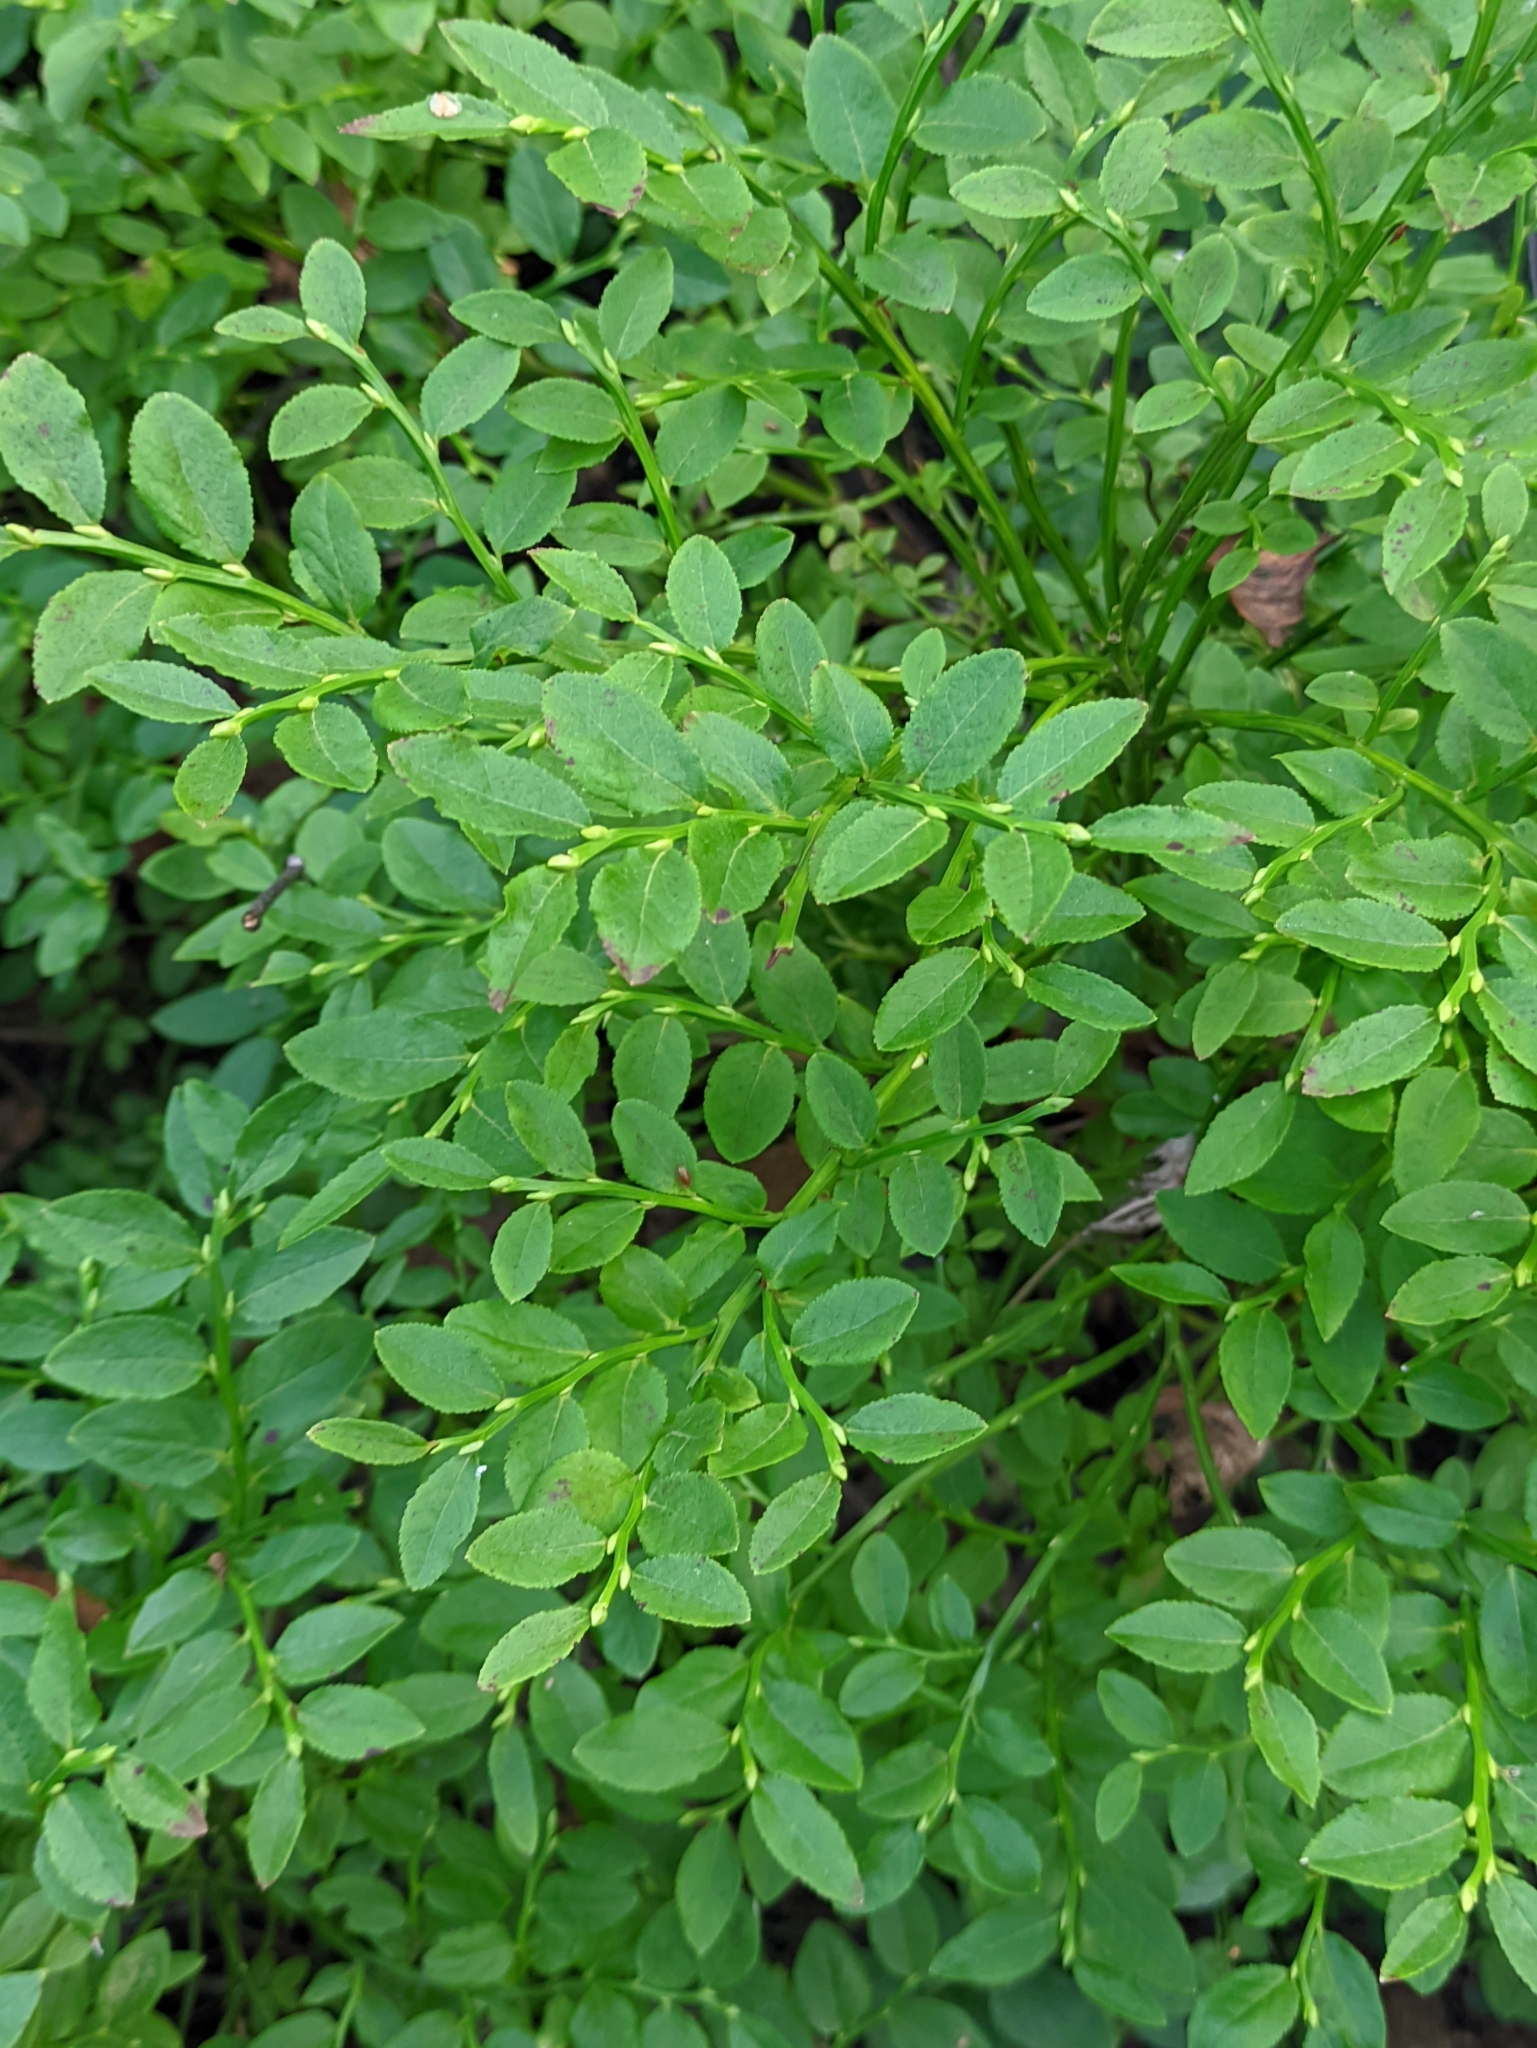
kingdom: Plantae
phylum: Tracheophyta
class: Magnoliopsida
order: Ericales
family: Ericaceae
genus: Vaccinium
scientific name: Vaccinium myrtillus
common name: Bilberry
